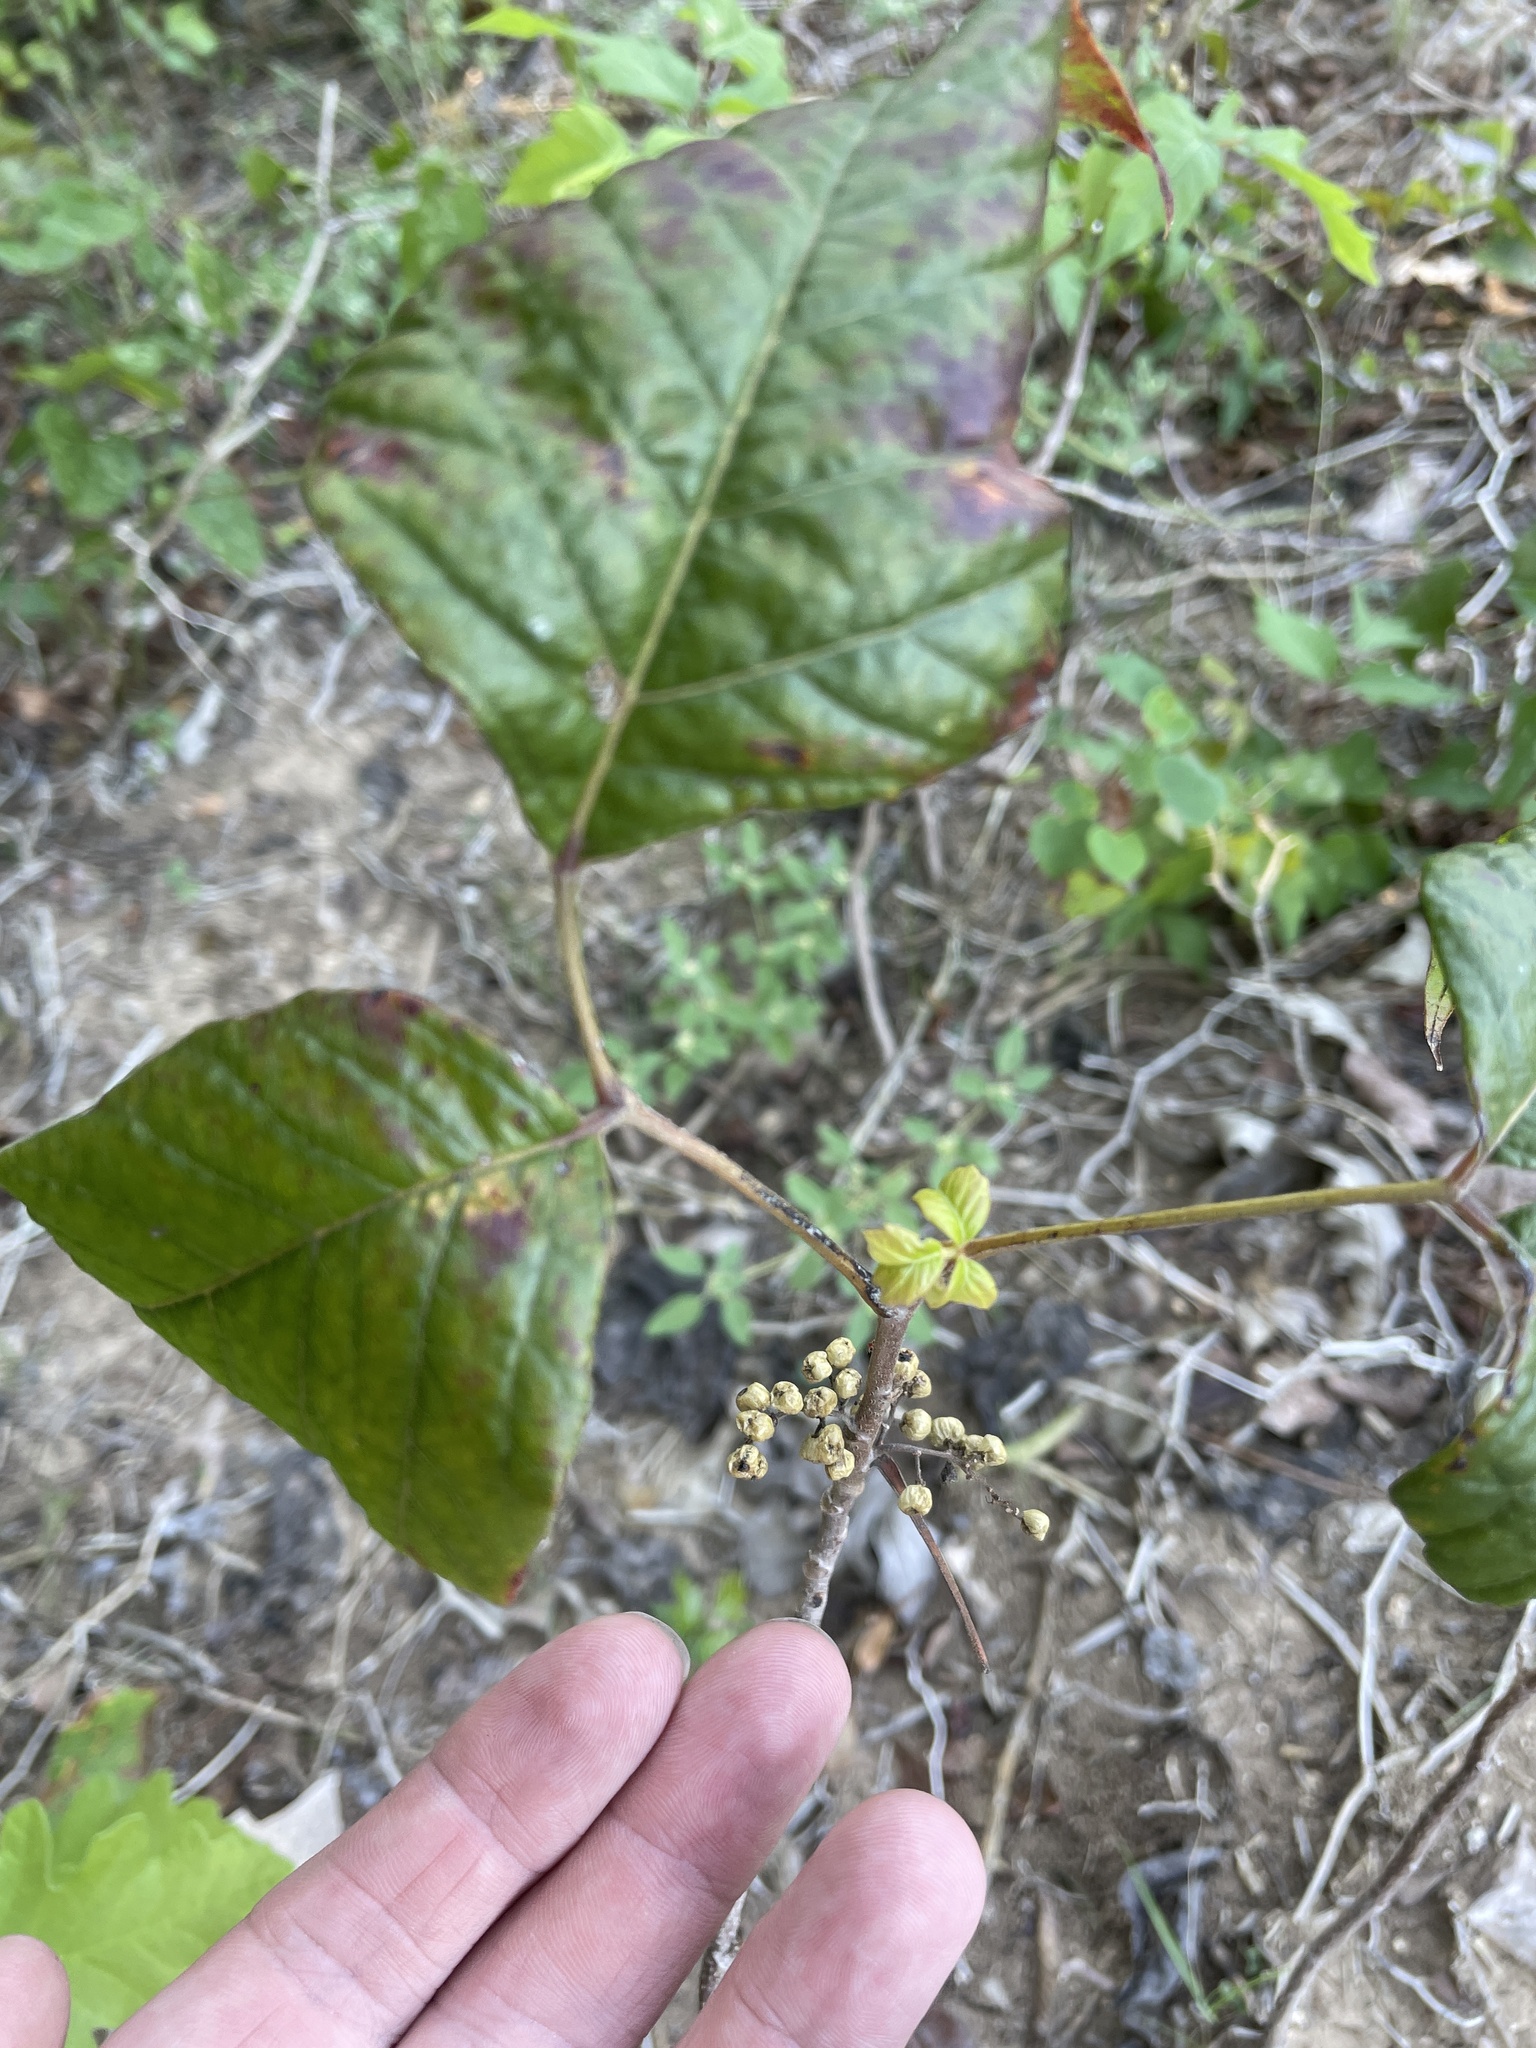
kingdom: Plantae
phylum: Tracheophyta
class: Magnoliopsida
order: Sapindales
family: Anacardiaceae
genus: Toxicodendron
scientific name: Toxicodendron radicans
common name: Poison ivy
